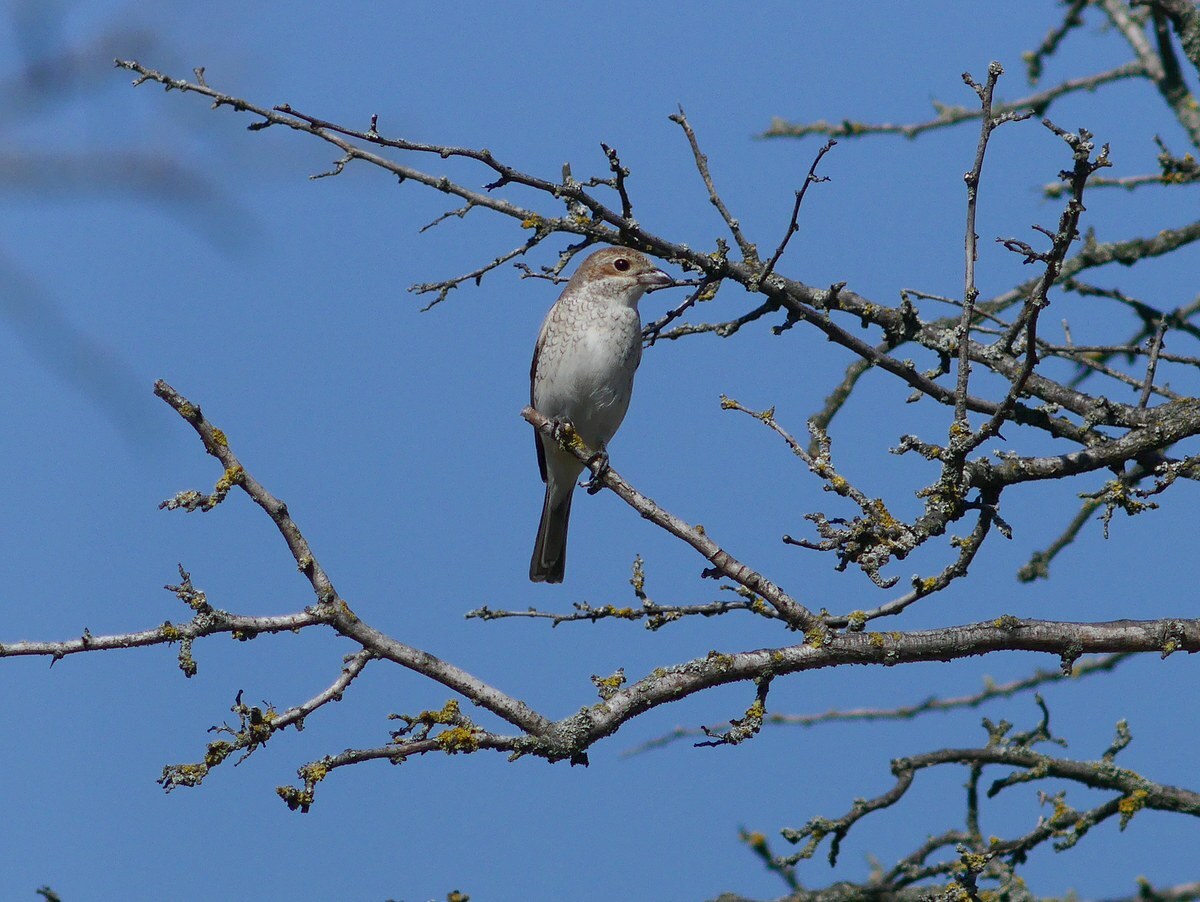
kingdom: Animalia
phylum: Chordata
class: Aves
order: Passeriformes
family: Laniidae
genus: Lanius
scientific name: Lanius collurio
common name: Red-backed shrike
